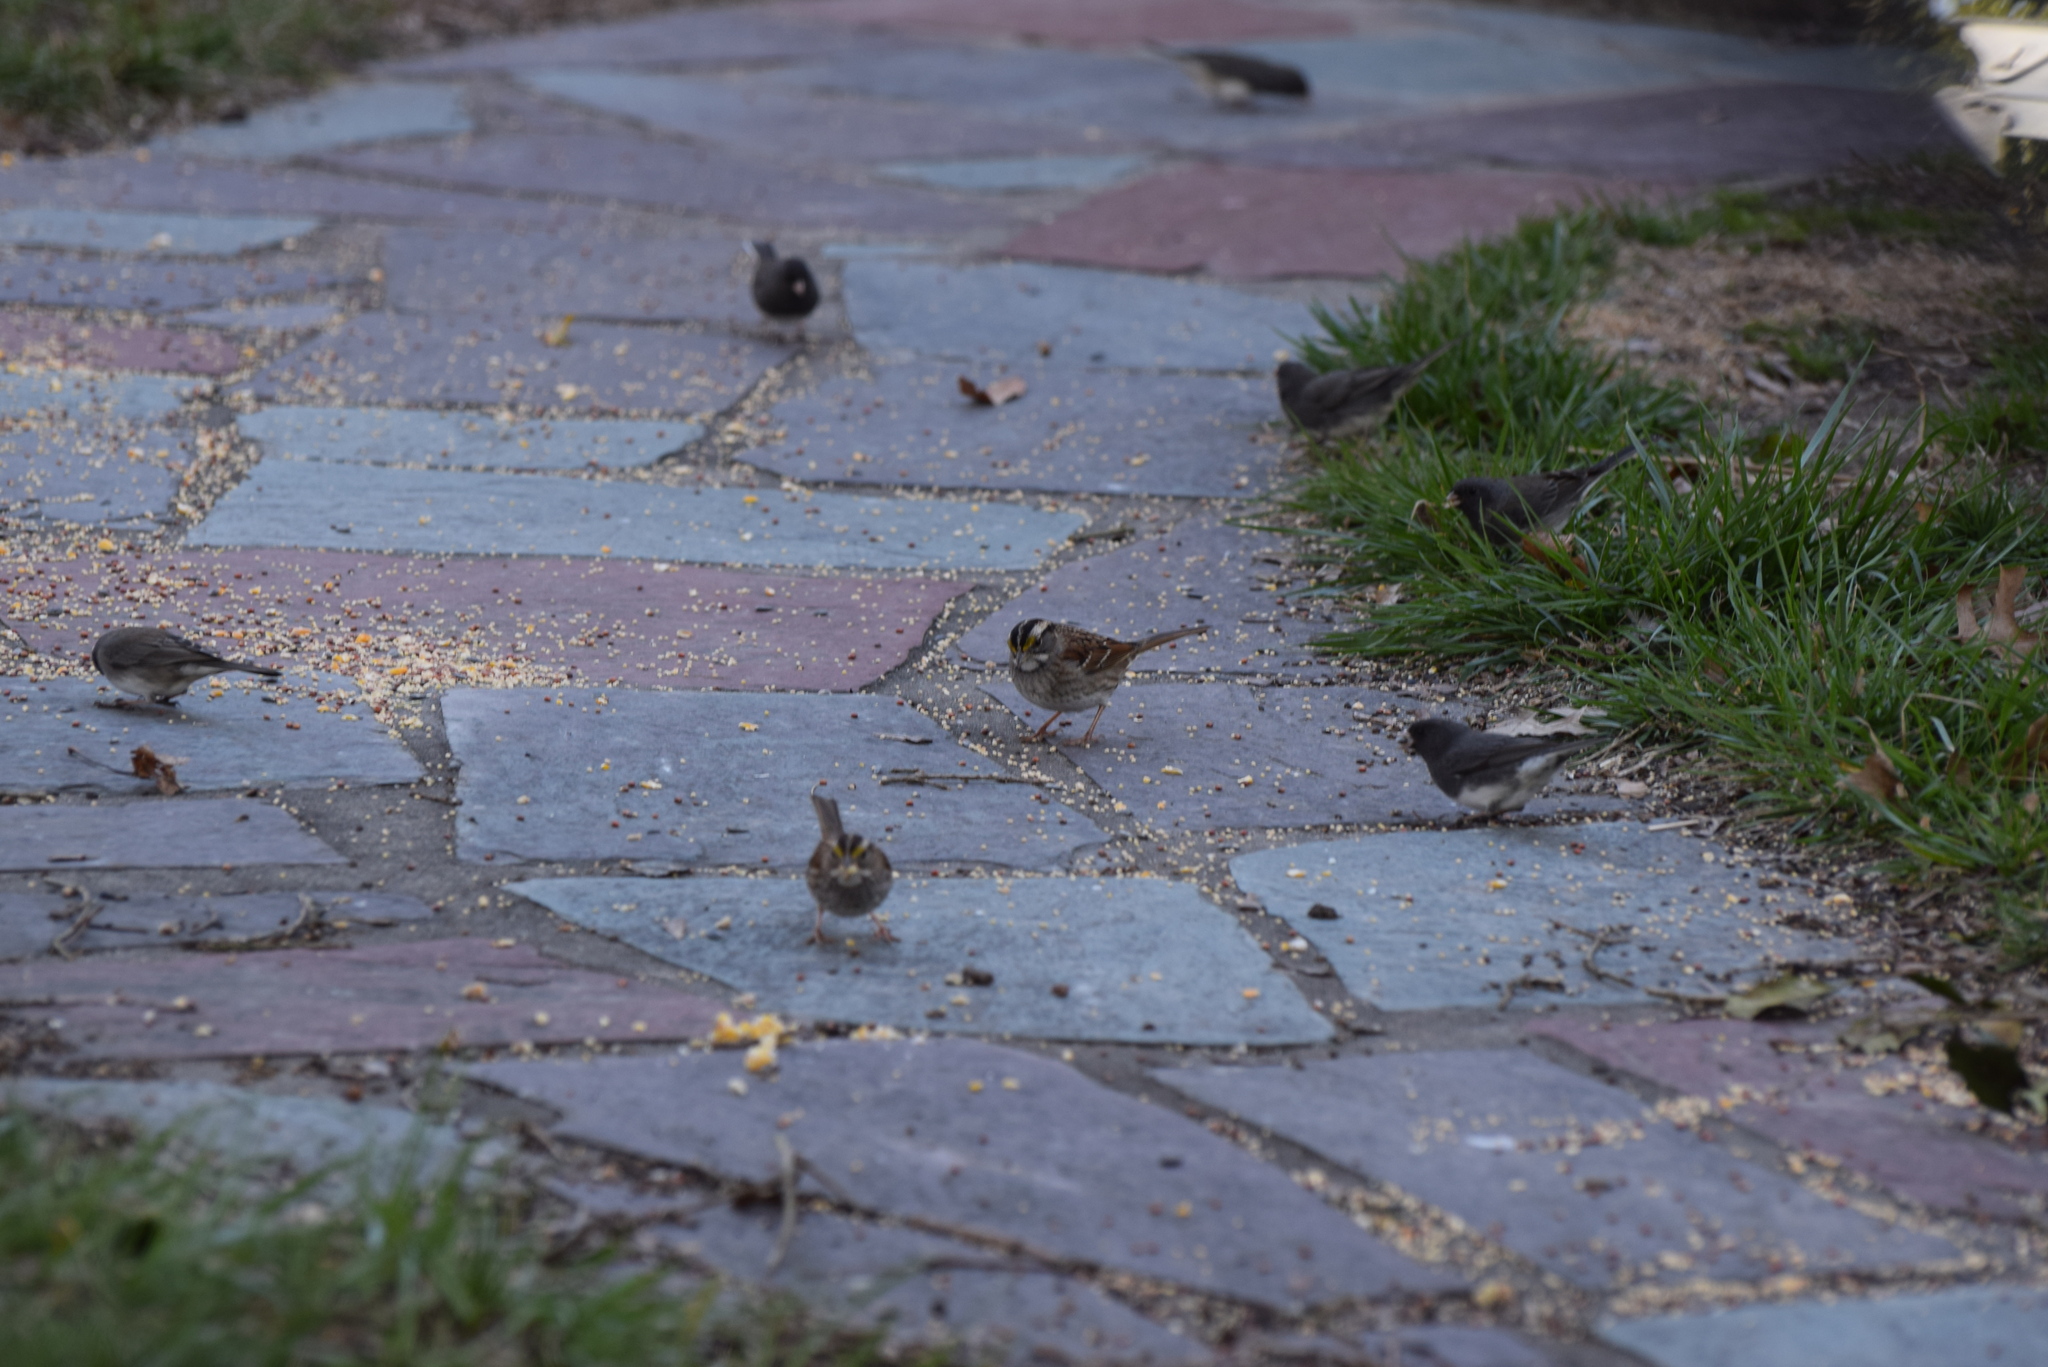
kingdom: Animalia
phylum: Chordata
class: Aves
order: Passeriformes
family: Passerellidae
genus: Junco
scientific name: Junco hyemalis
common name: Dark-eyed junco
